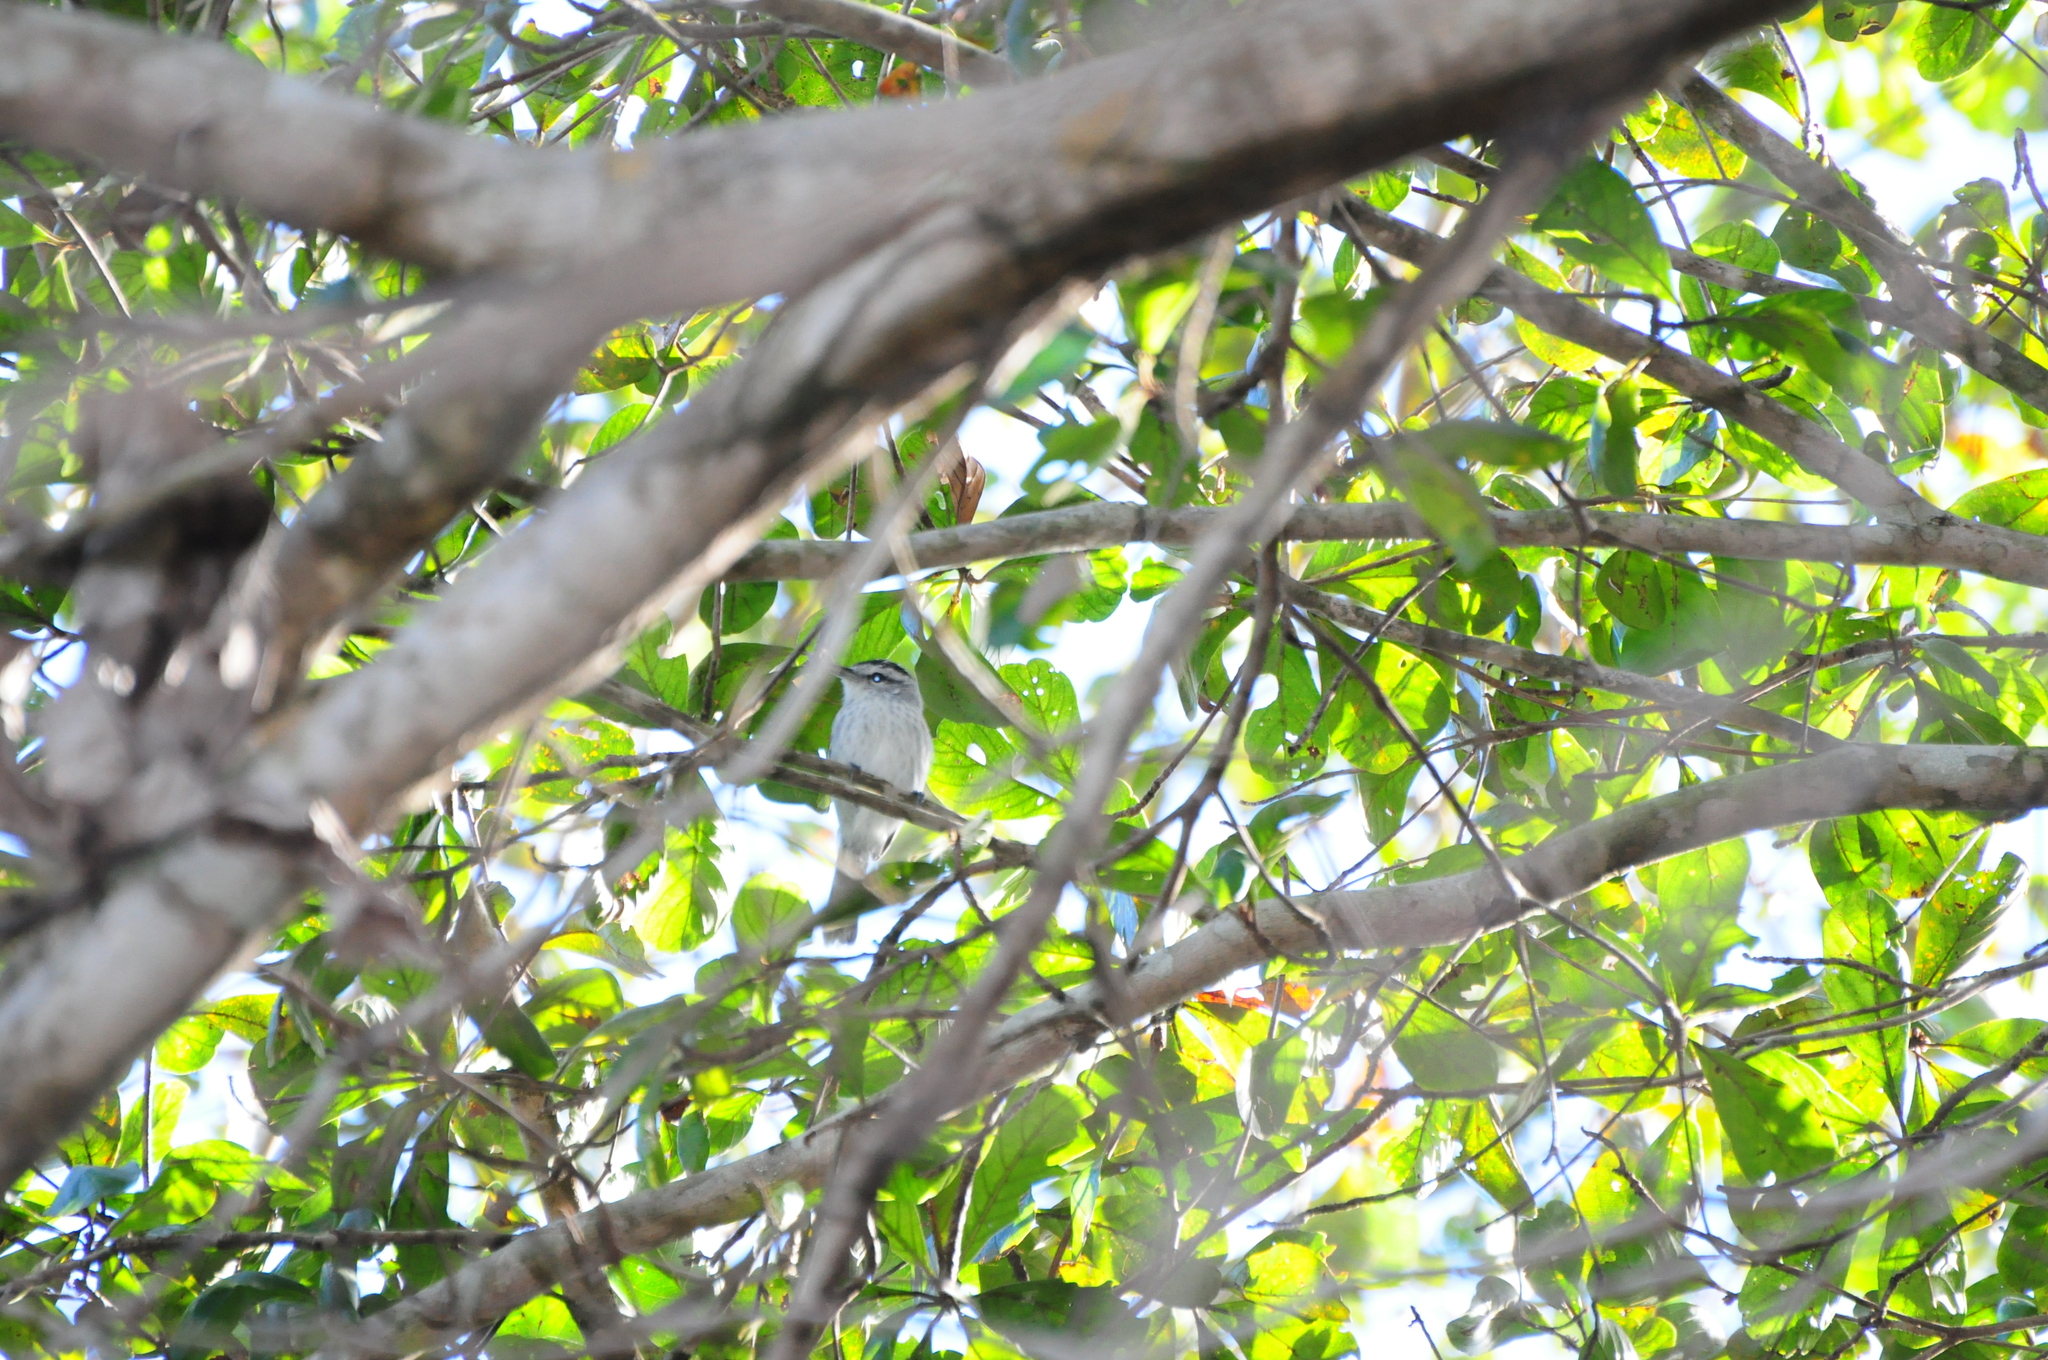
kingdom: Animalia
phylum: Chordata
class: Aves
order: Passeriformes
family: Thamnophilidae
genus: Herpsilochmus
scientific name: Herpsilochmus longirostris
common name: Large-billed antwren
